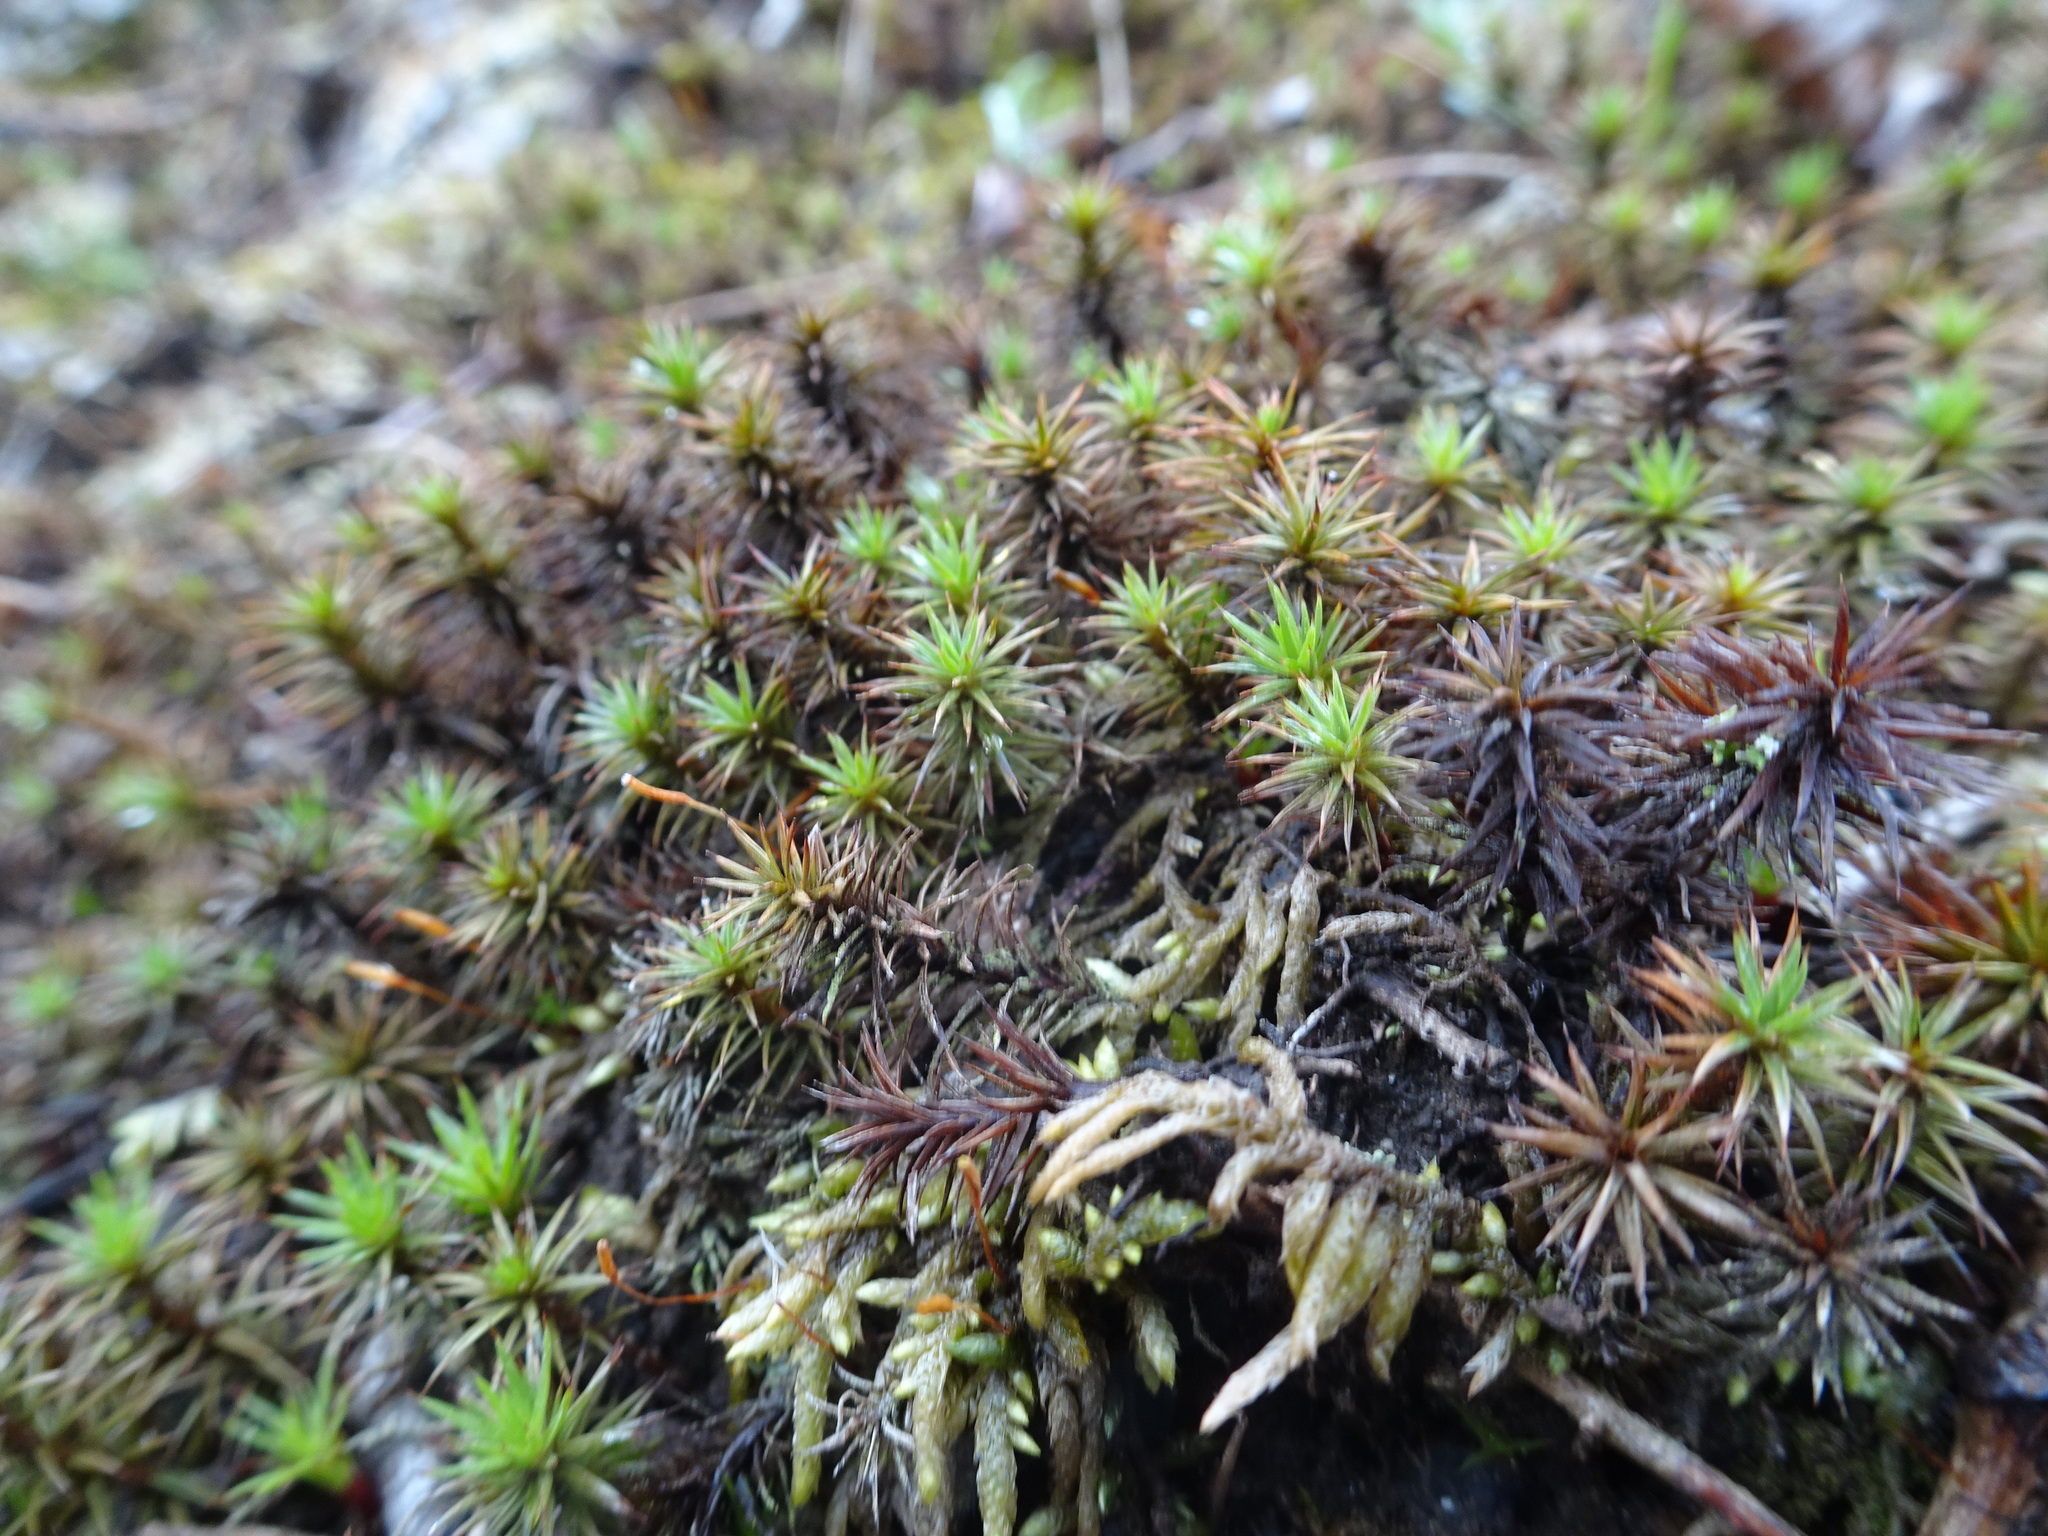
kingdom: Plantae
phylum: Bryophyta
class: Polytrichopsida
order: Polytrichales
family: Polytrichaceae
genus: Polytrichum
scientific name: Polytrichum juniperinum
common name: Juniper haircap moss
